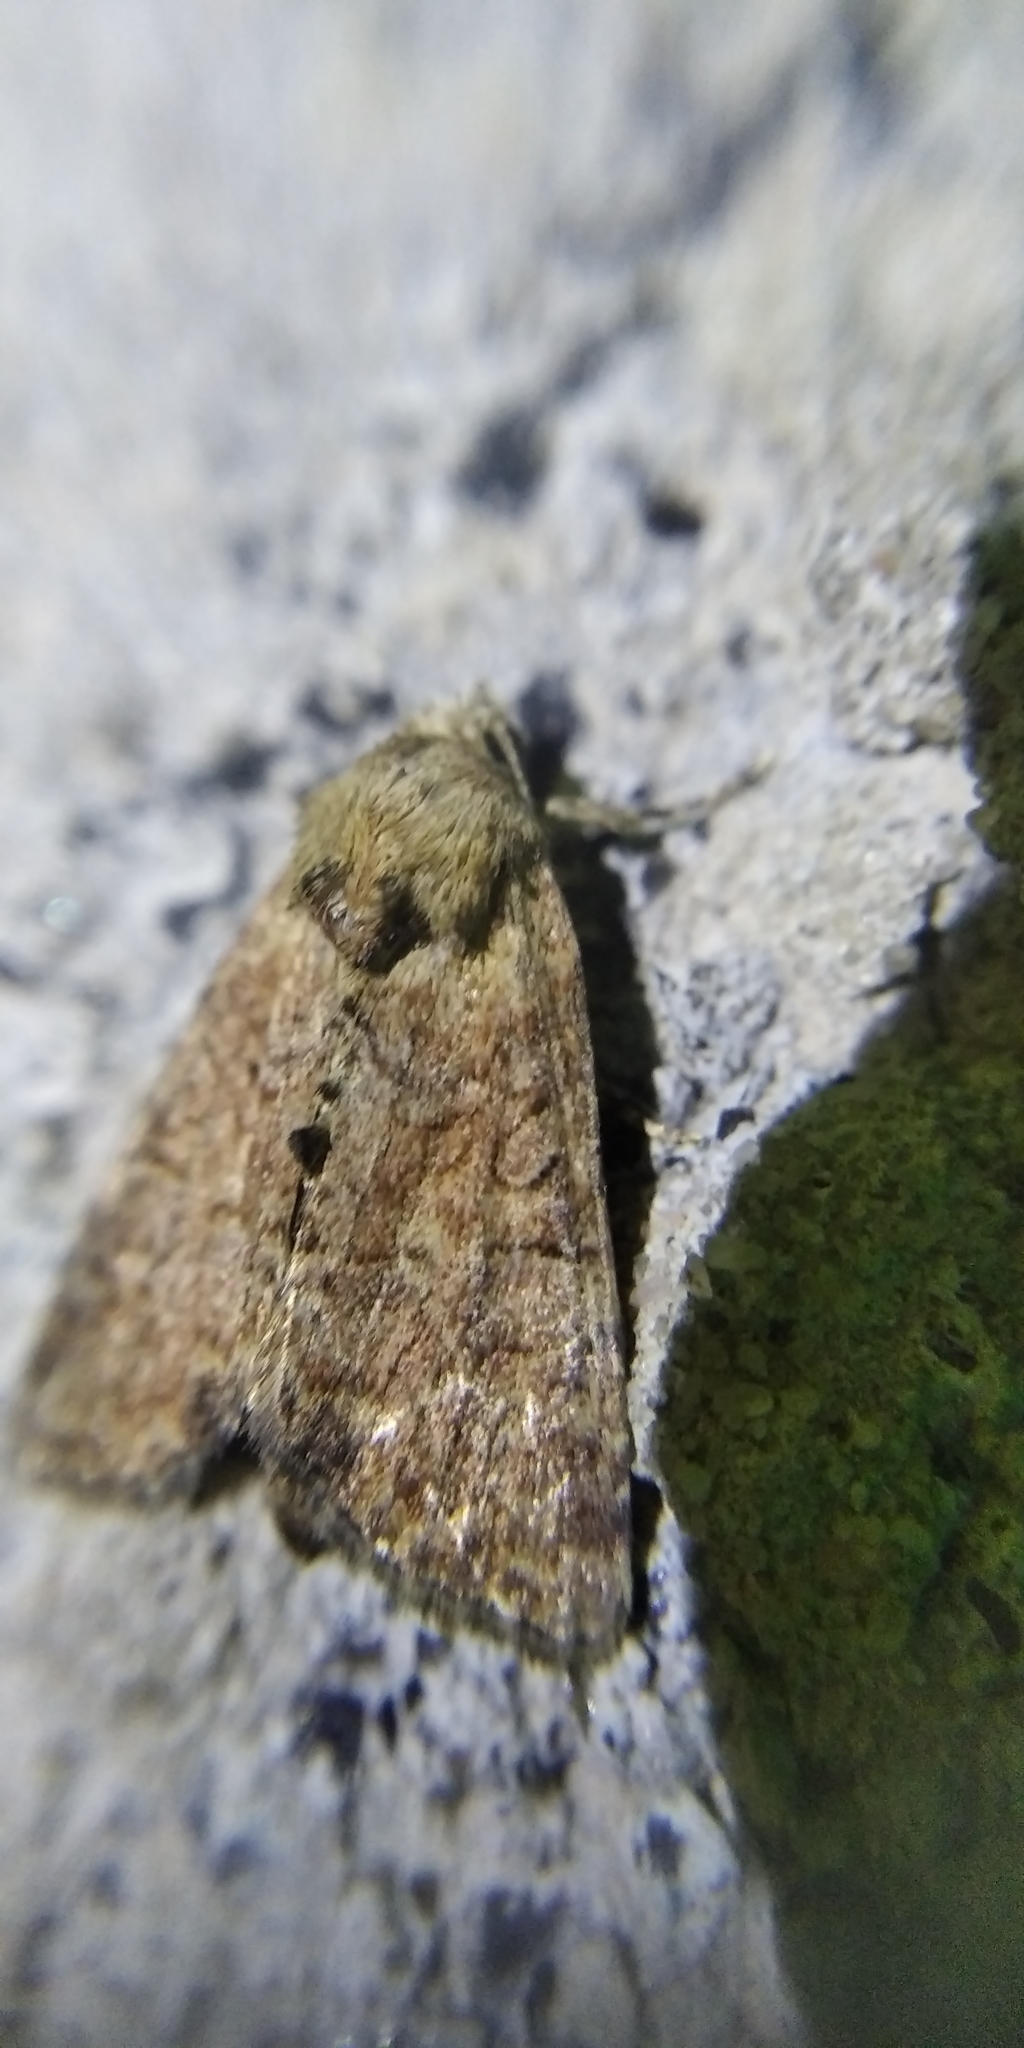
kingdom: Animalia
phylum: Arthropoda
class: Insecta
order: Lepidoptera
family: Noctuidae
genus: Mesoligia
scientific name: Mesoligia furuncula
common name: Cloaked minor
